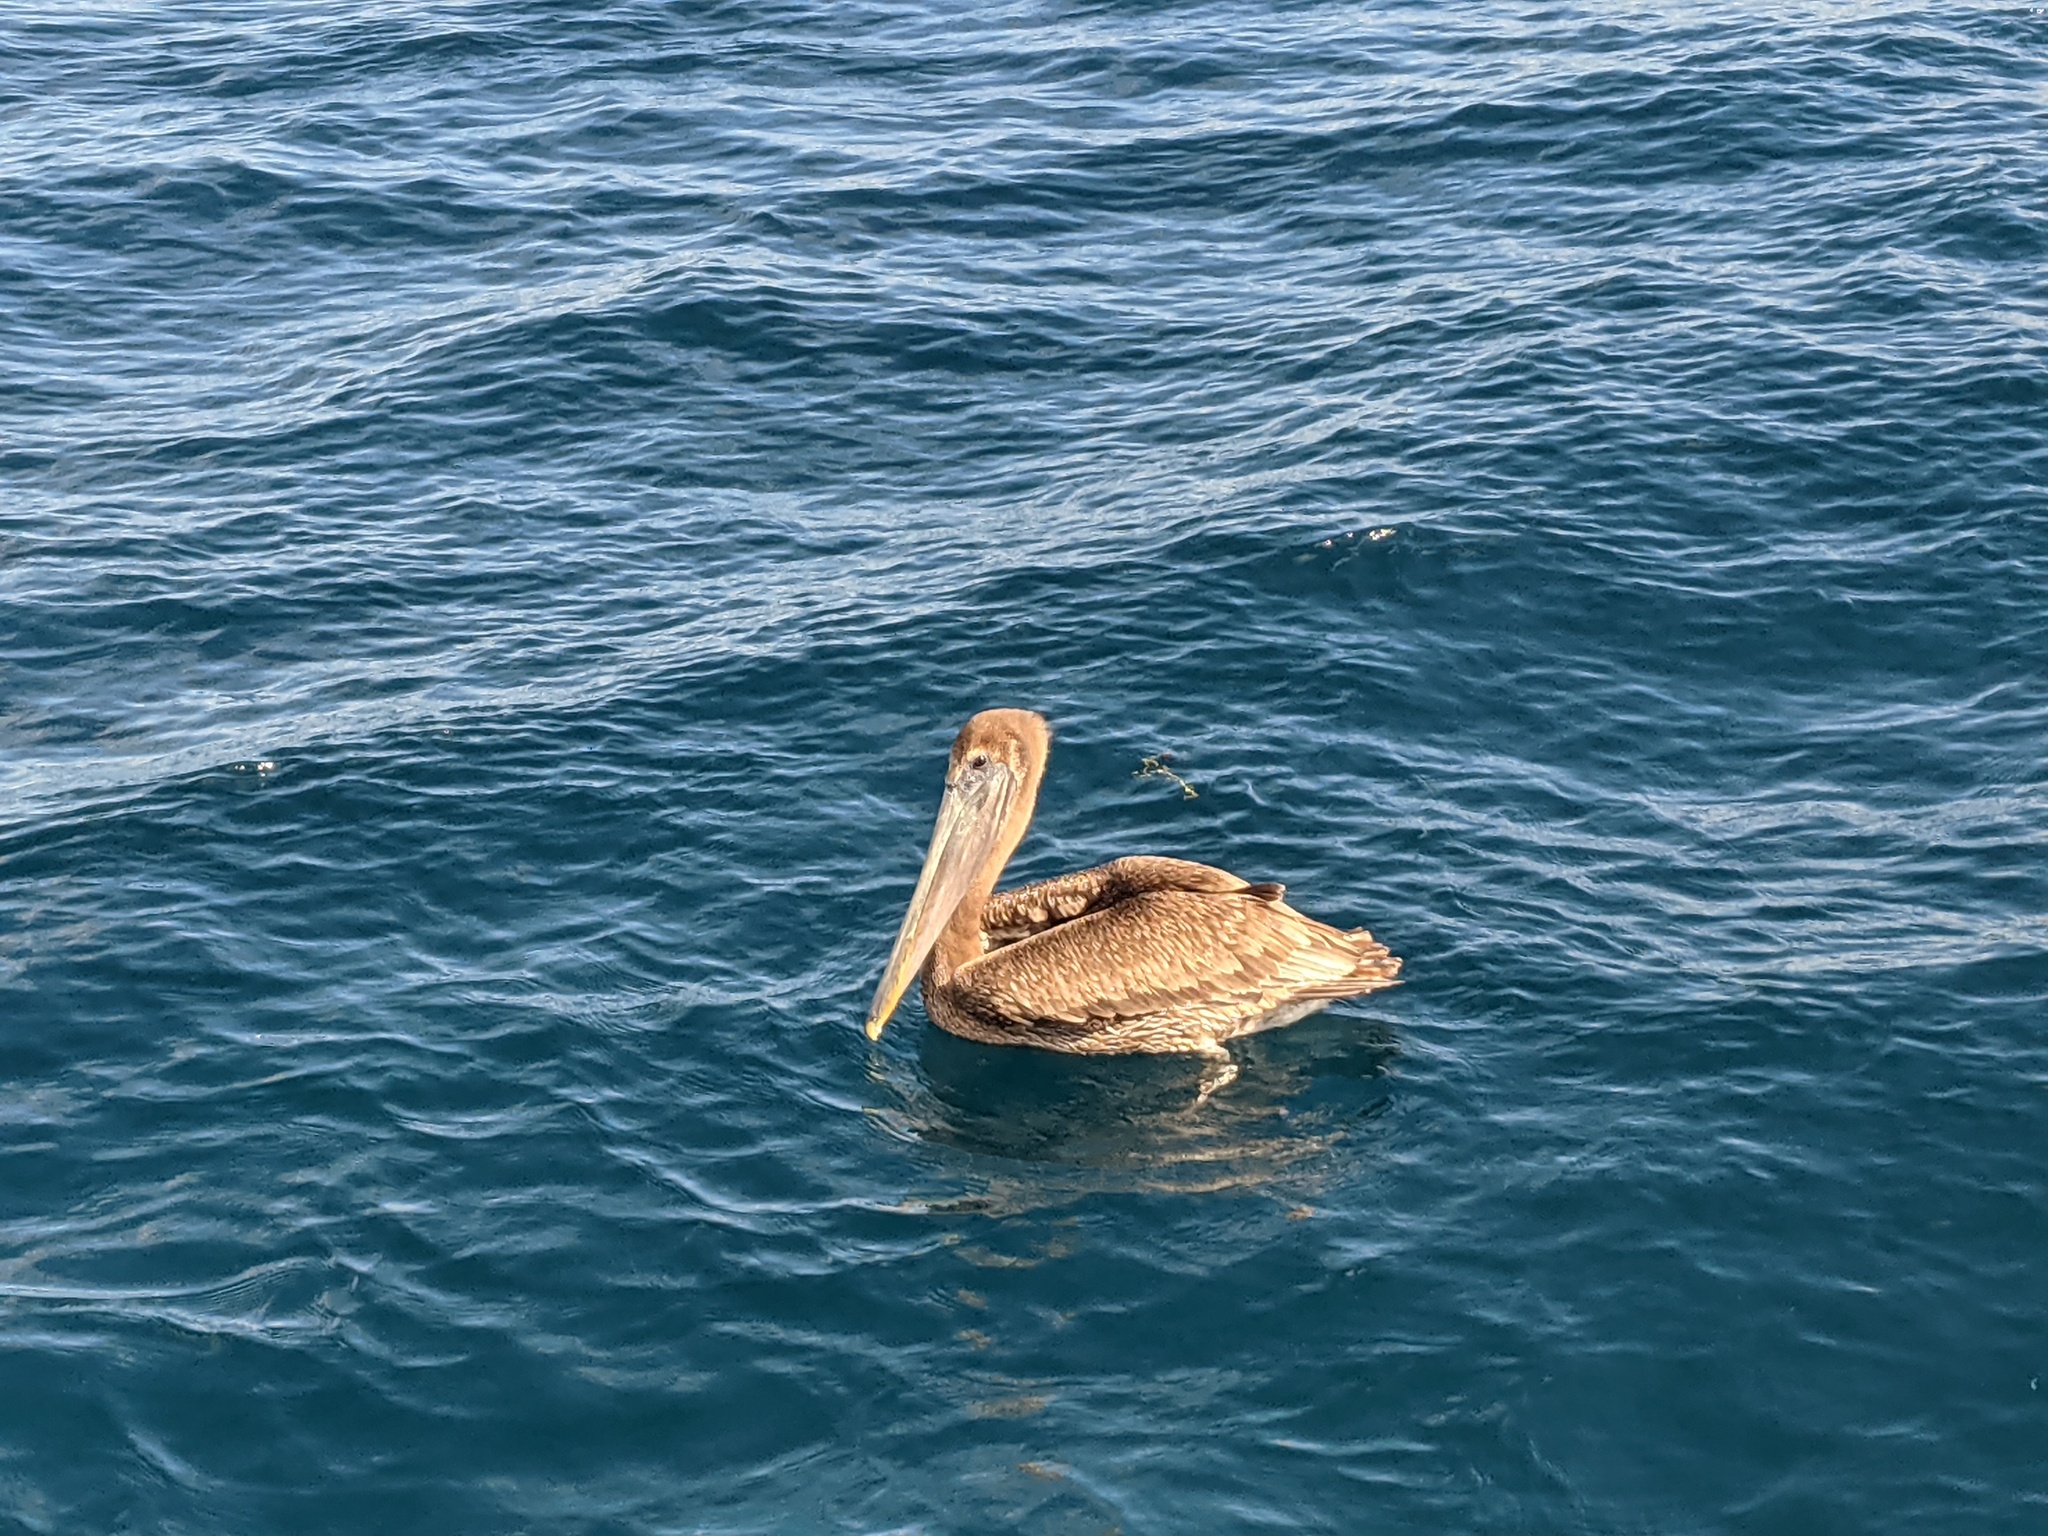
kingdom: Animalia
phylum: Chordata
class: Aves
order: Pelecaniformes
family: Pelecanidae
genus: Pelecanus
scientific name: Pelecanus occidentalis
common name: Brown pelican
